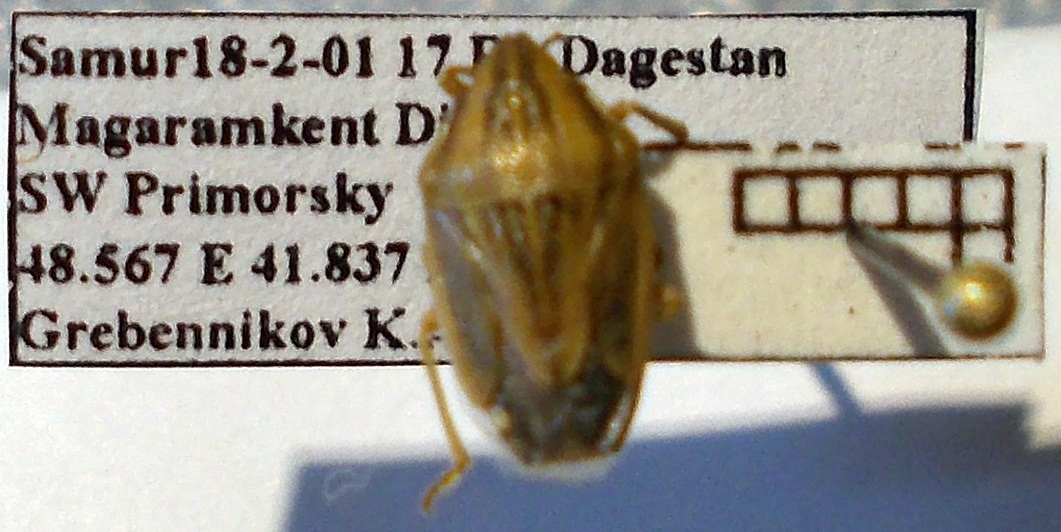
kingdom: Animalia
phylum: Arthropoda
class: Insecta
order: Hemiptera
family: Pentatomidae
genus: Aelia
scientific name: Aelia acuminata
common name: Bishop's mitre
